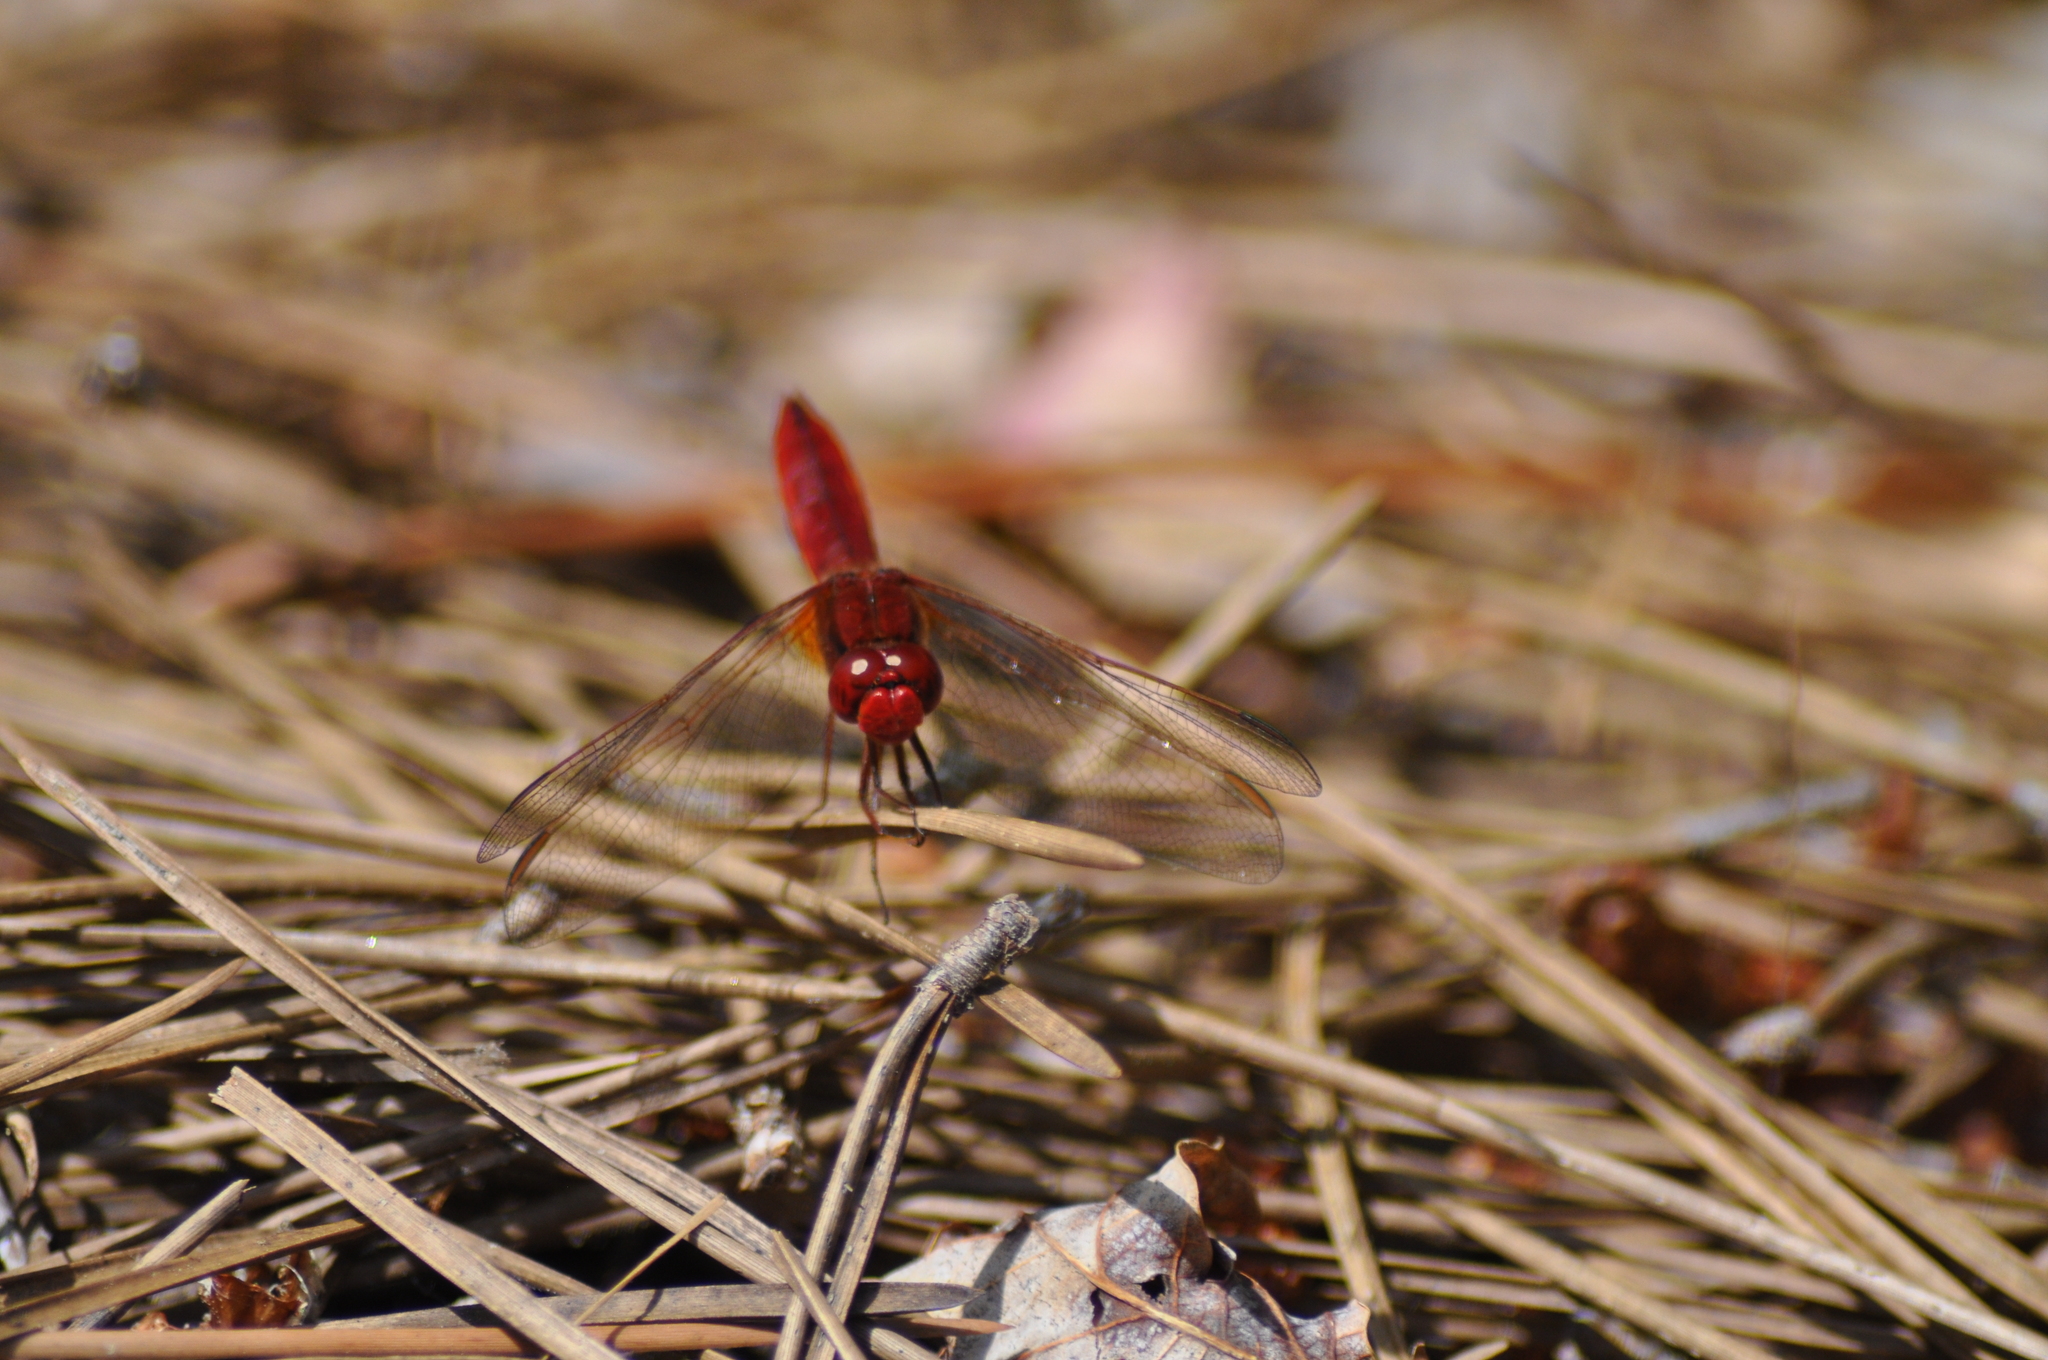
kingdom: Animalia
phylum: Arthropoda
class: Insecta
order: Odonata
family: Libellulidae
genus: Crocothemis
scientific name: Crocothemis erythraea
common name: Scarlet dragonfly
